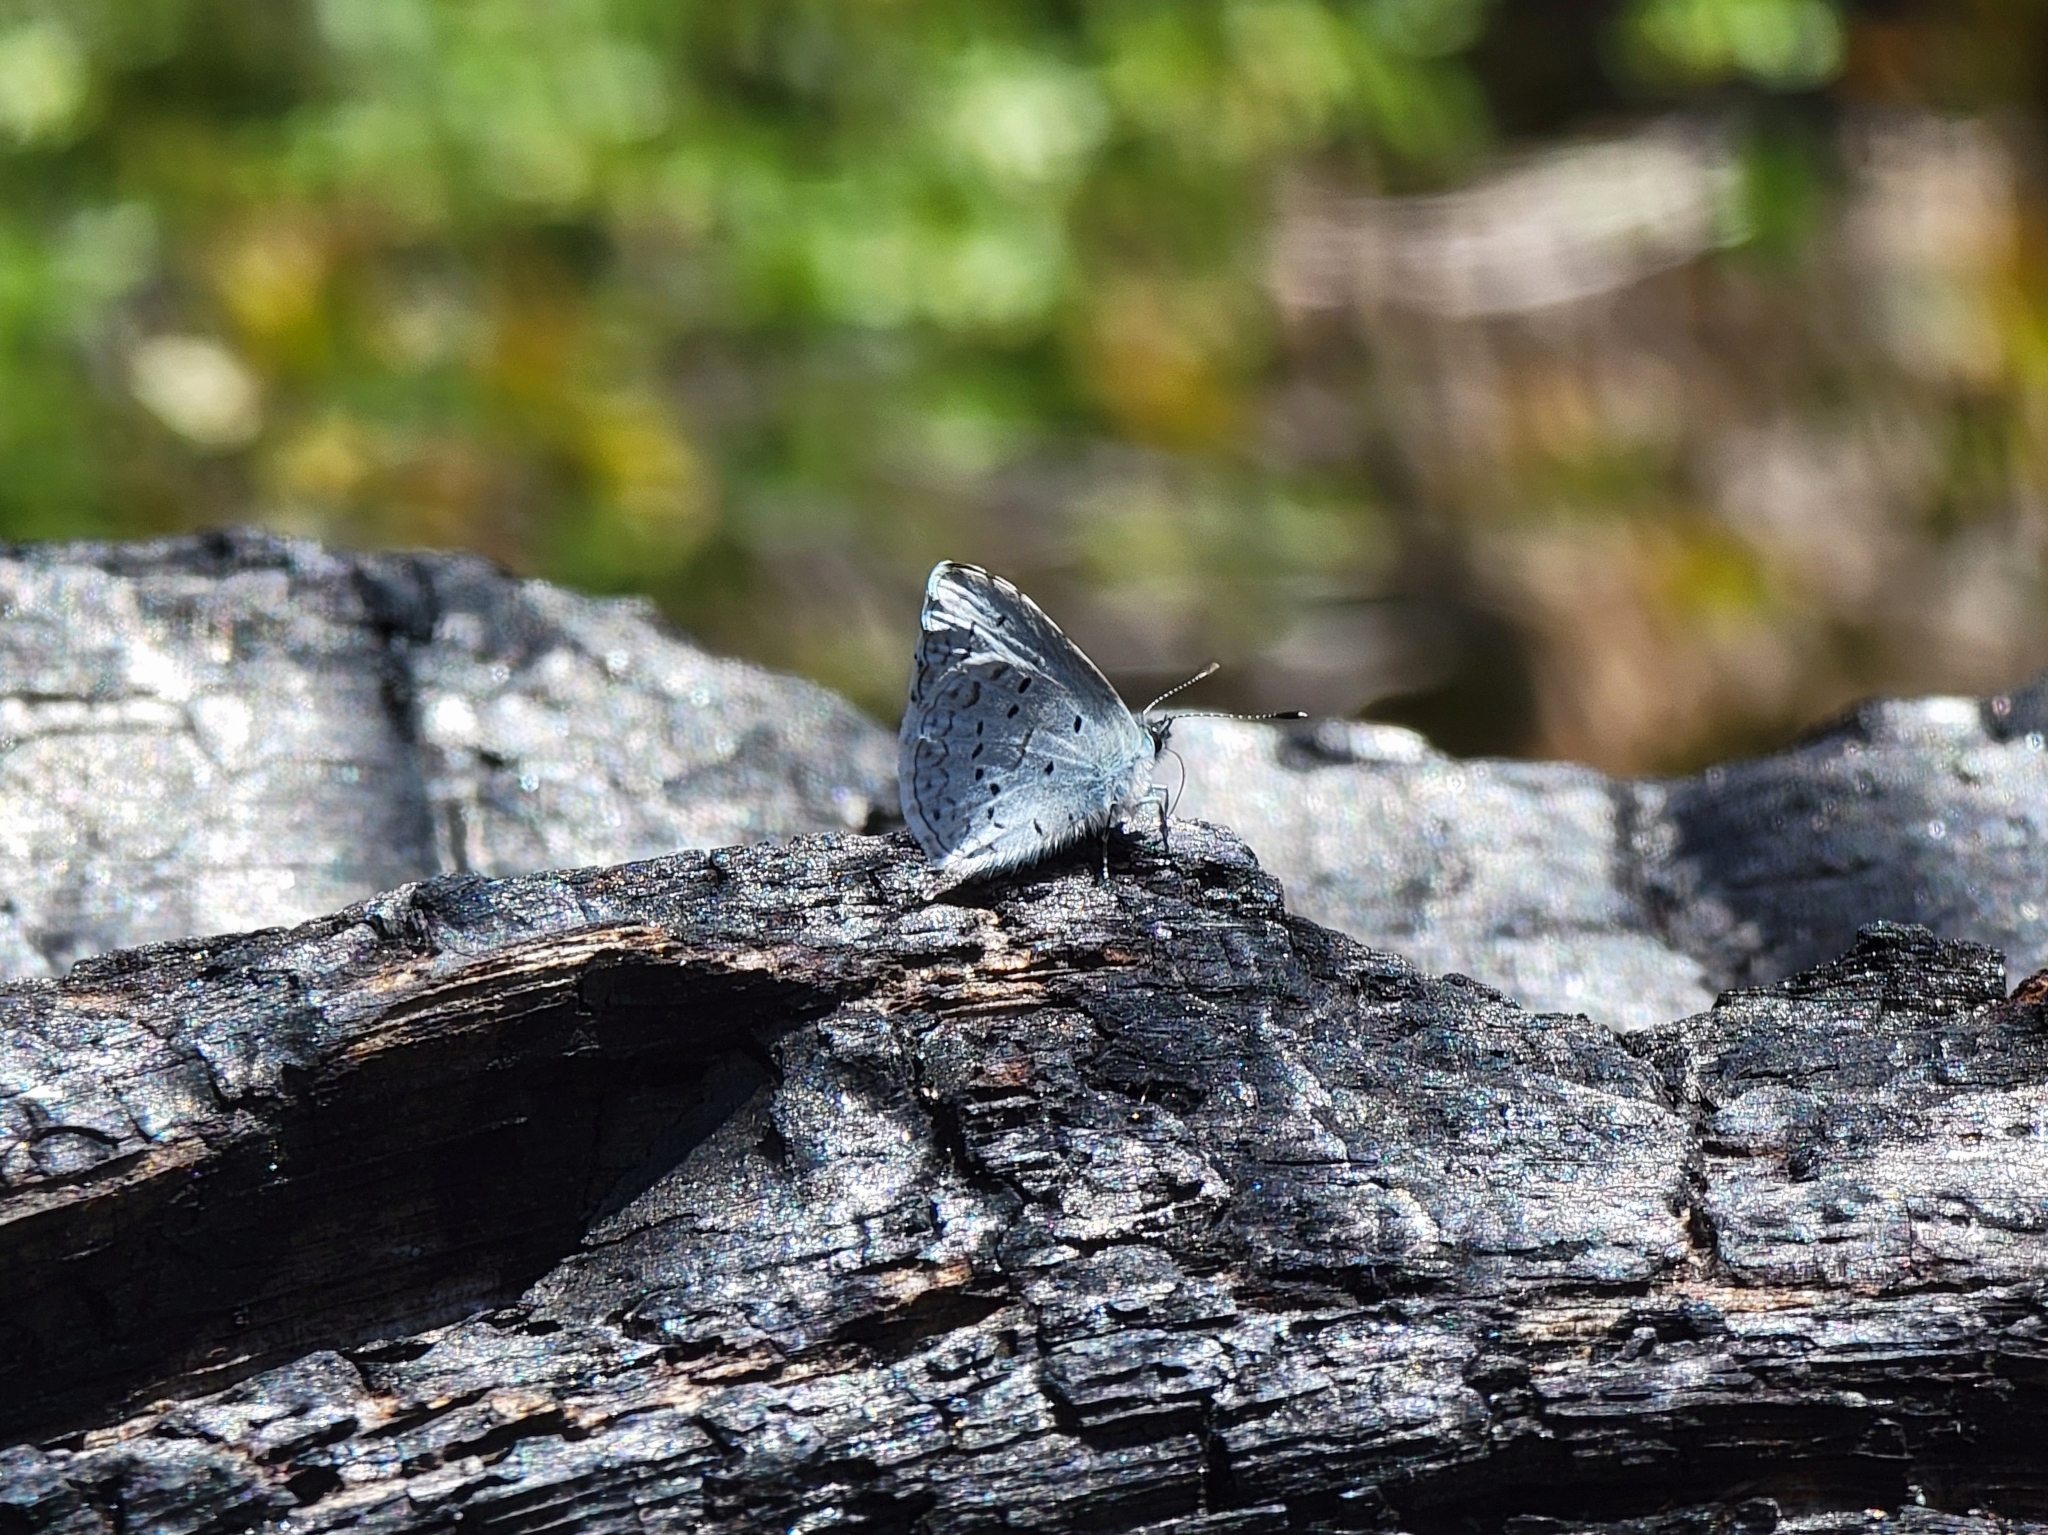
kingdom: Animalia
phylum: Arthropoda
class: Insecta
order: Lepidoptera
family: Lycaenidae
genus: Celastrina
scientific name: Celastrina ladon
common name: Spring azure
